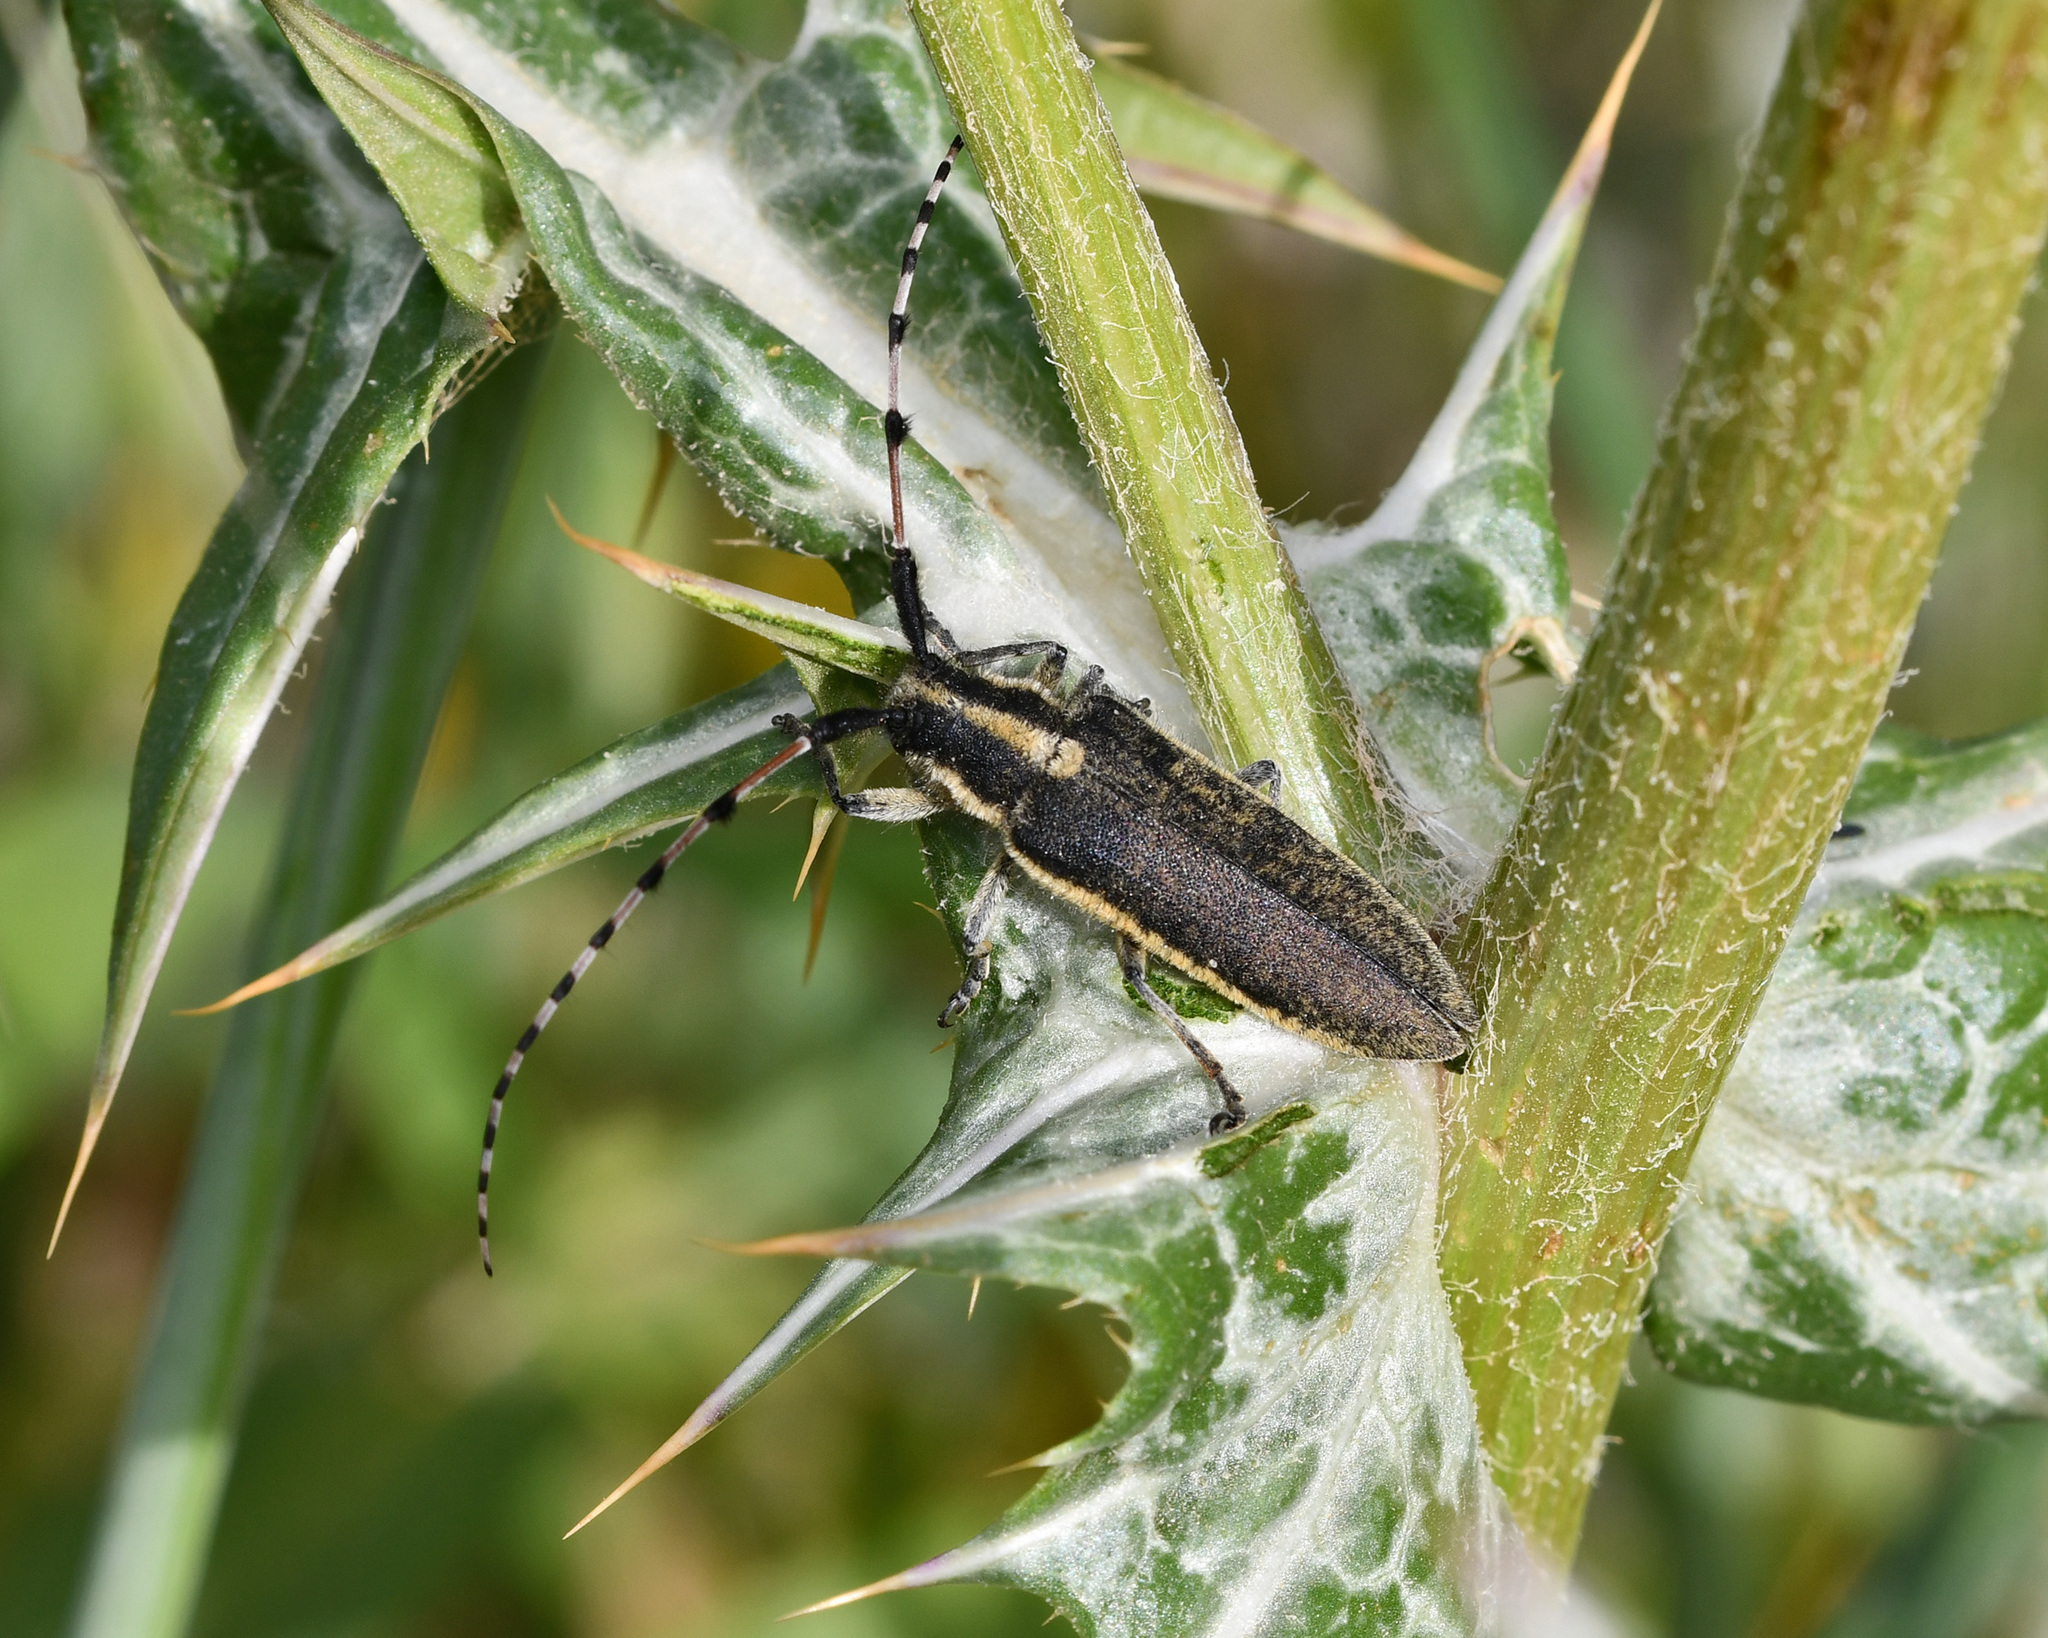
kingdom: Animalia
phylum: Arthropoda
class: Insecta
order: Coleoptera
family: Cerambycidae
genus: Agapanthia
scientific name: Agapanthia nicosiensis
